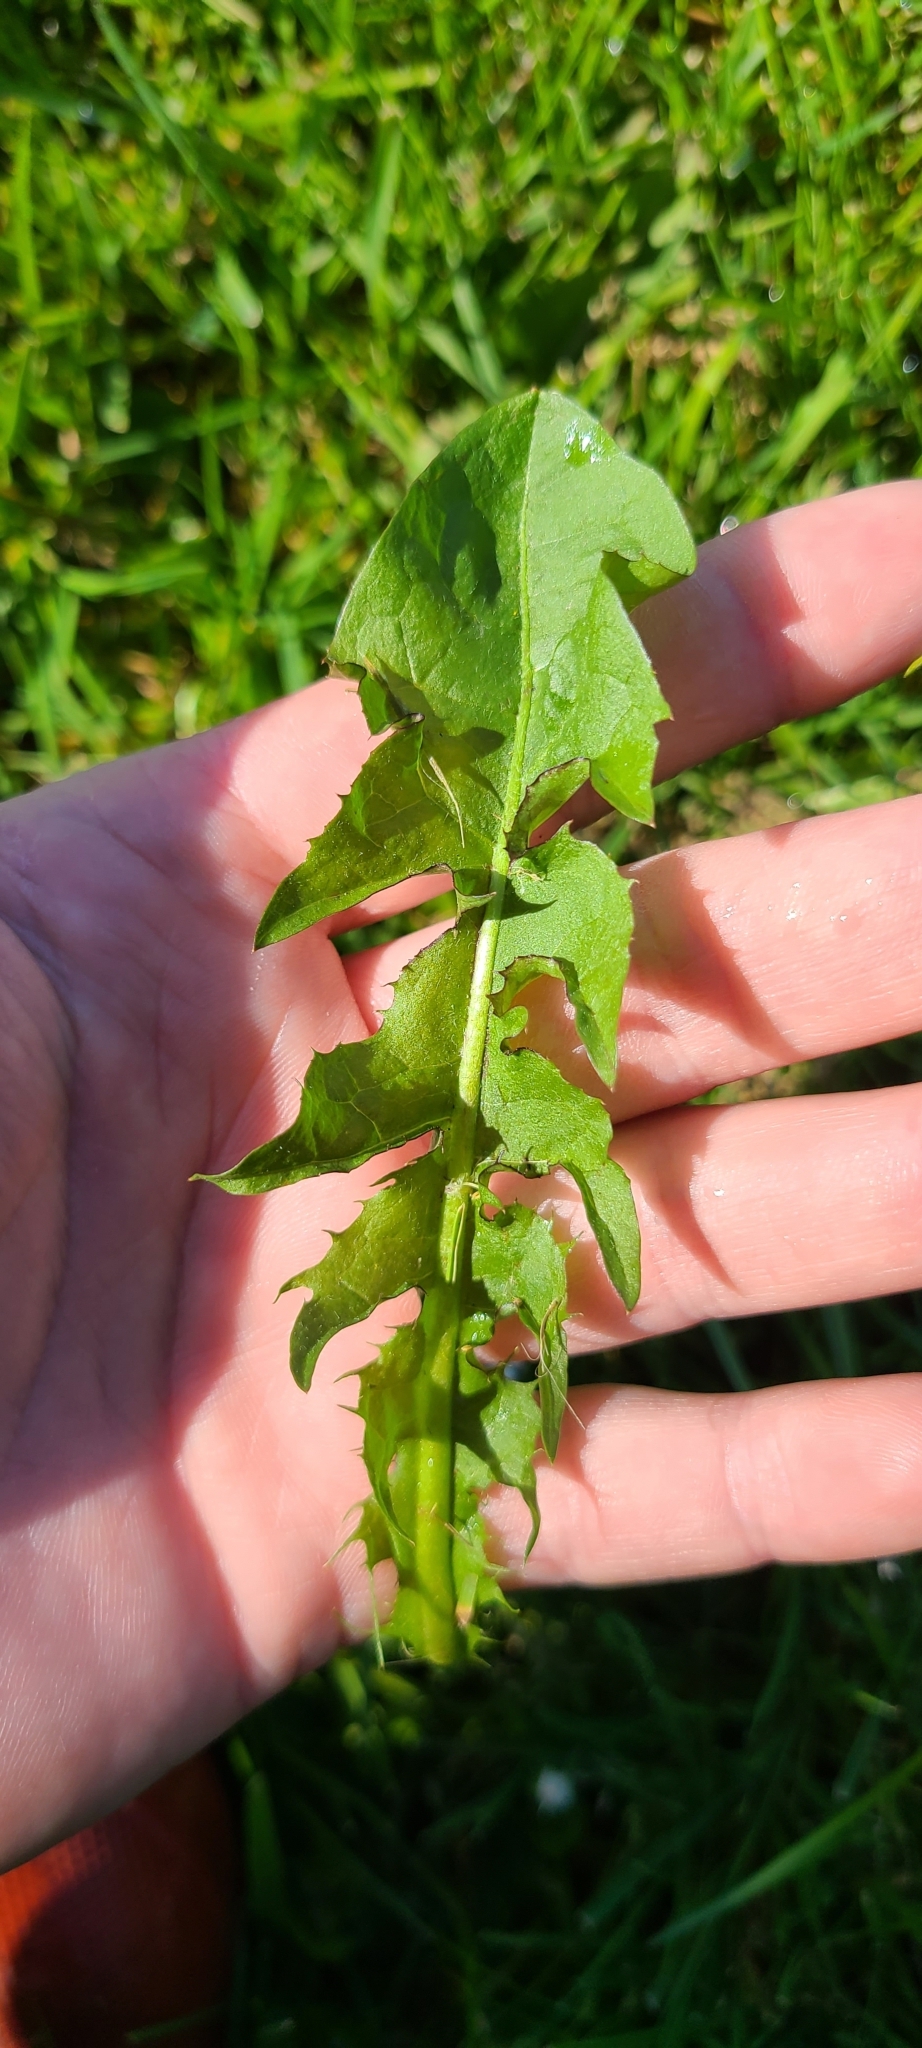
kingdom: Plantae
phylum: Tracheophyta
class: Magnoliopsida
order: Asterales
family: Asteraceae
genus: Taraxacum
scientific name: Taraxacum officinale
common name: Common dandelion
